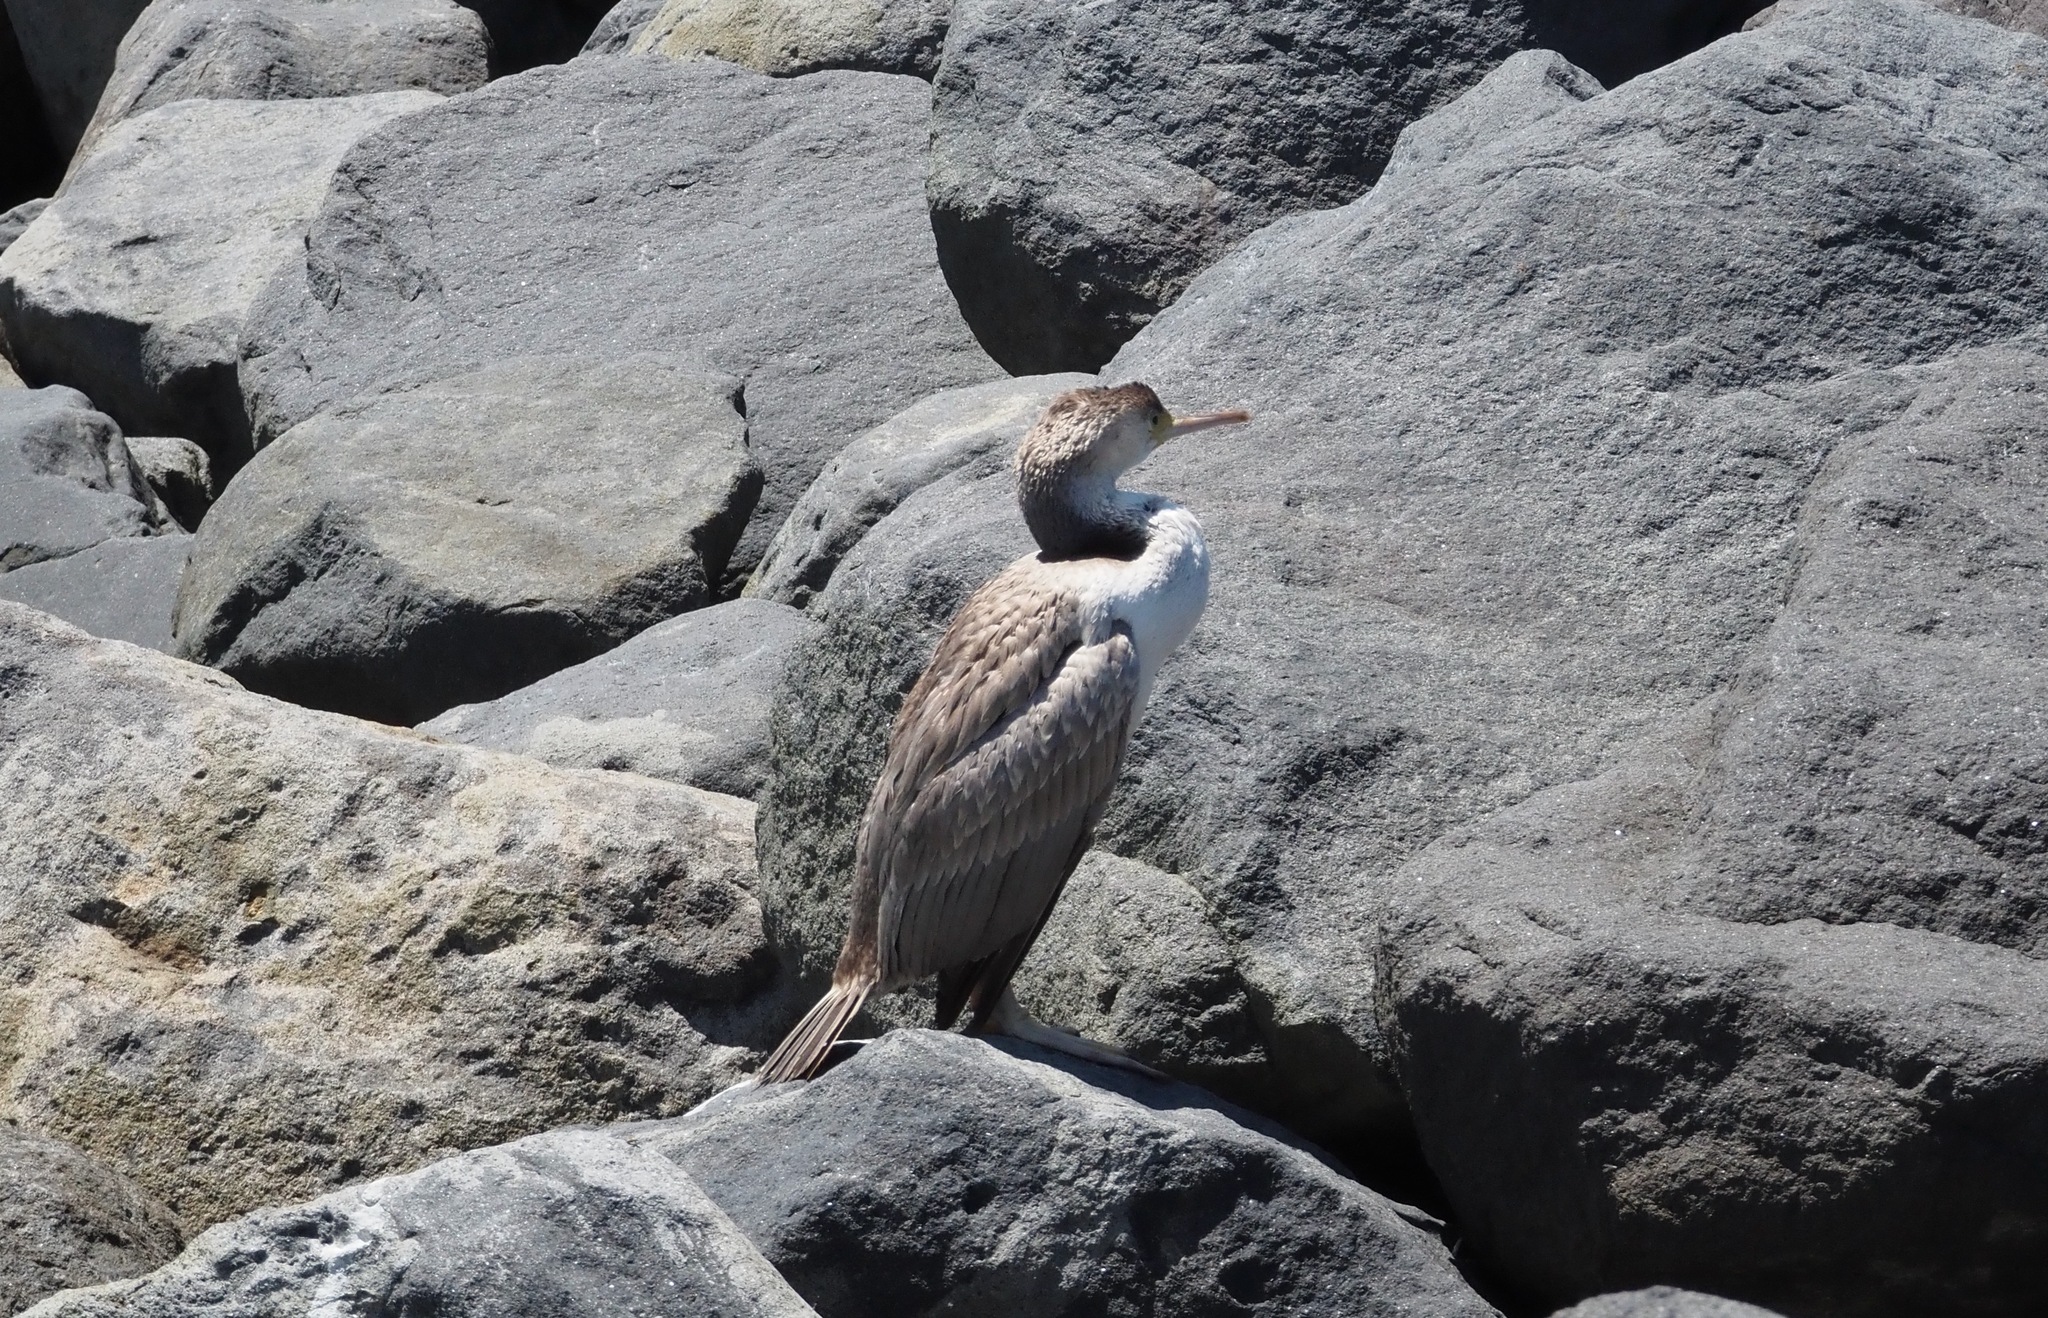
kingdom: Animalia
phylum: Chordata
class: Aves
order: Suliformes
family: Phalacrocoracidae
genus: Phalacrocorax
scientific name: Phalacrocorax punctatus
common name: Spotted shag
